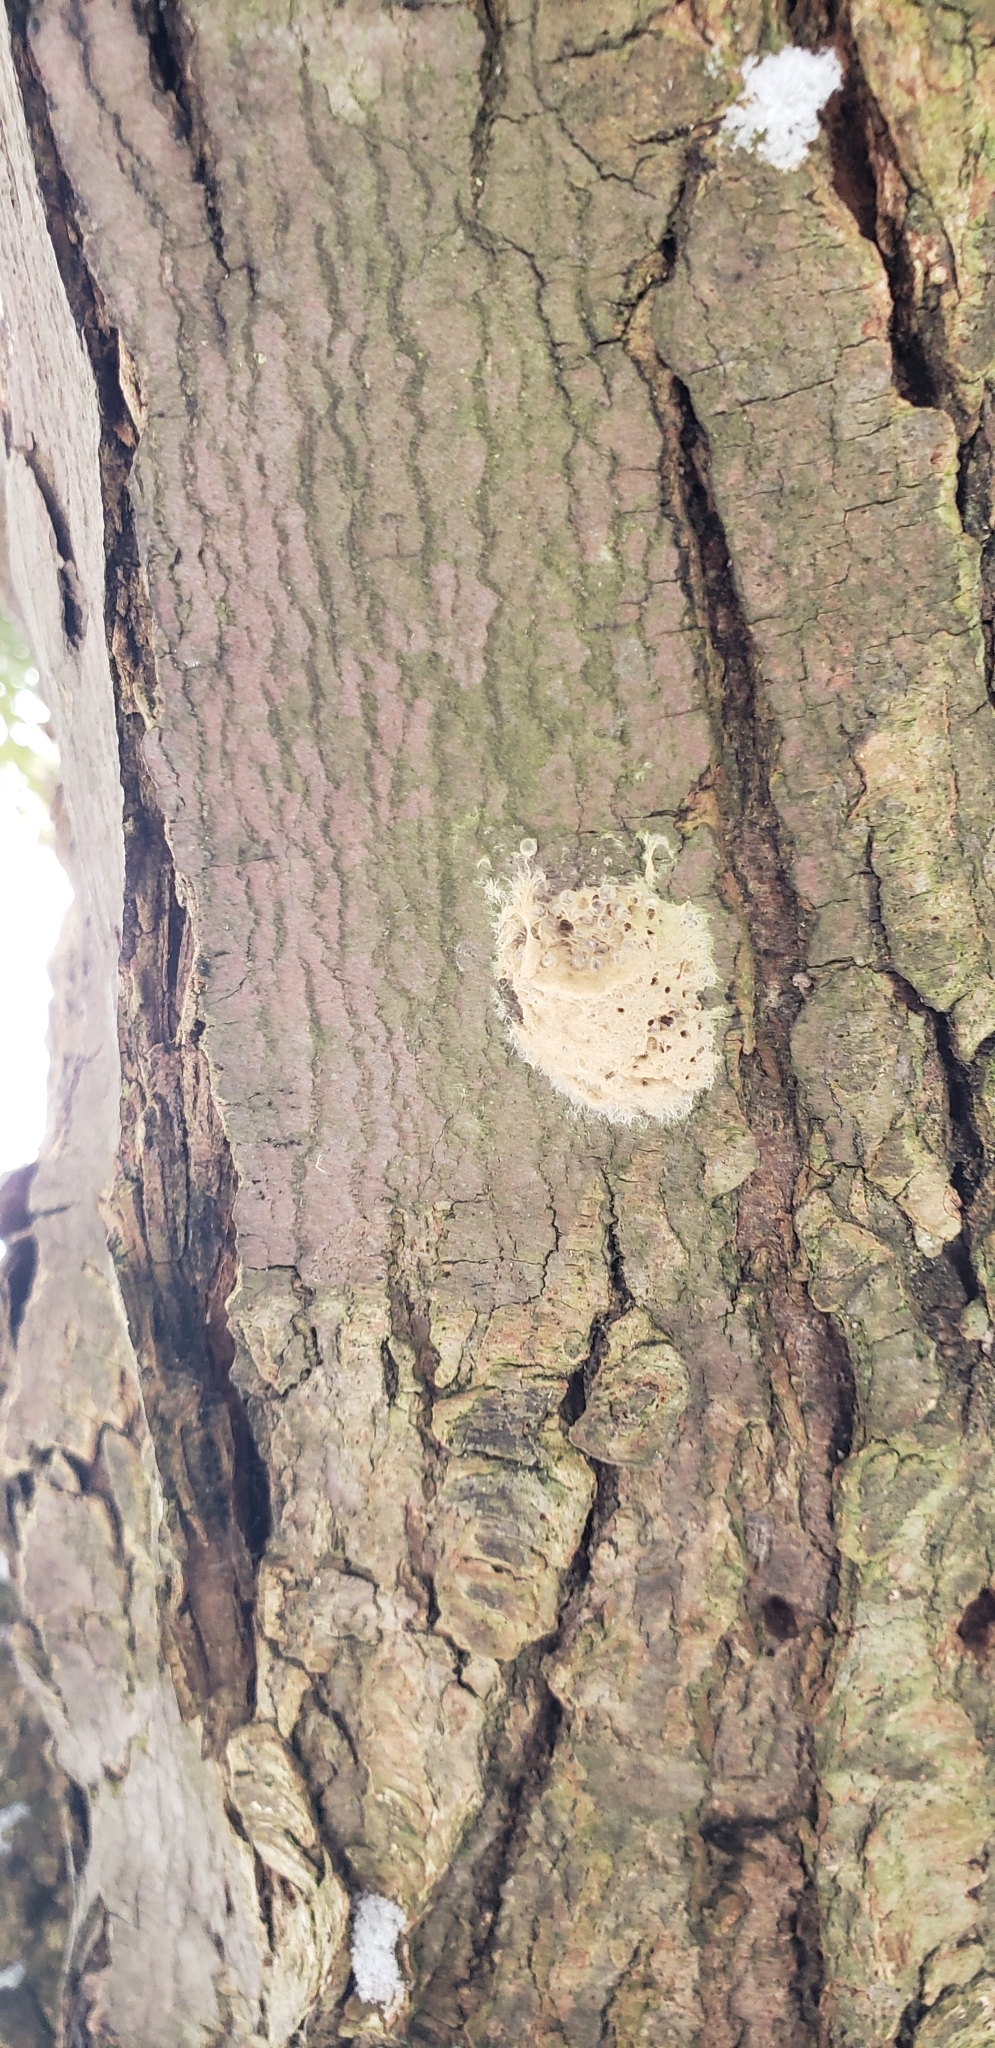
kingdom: Animalia
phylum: Arthropoda
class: Insecta
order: Lepidoptera
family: Erebidae
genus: Lymantria
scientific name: Lymantria dispar
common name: Gypsy moth
